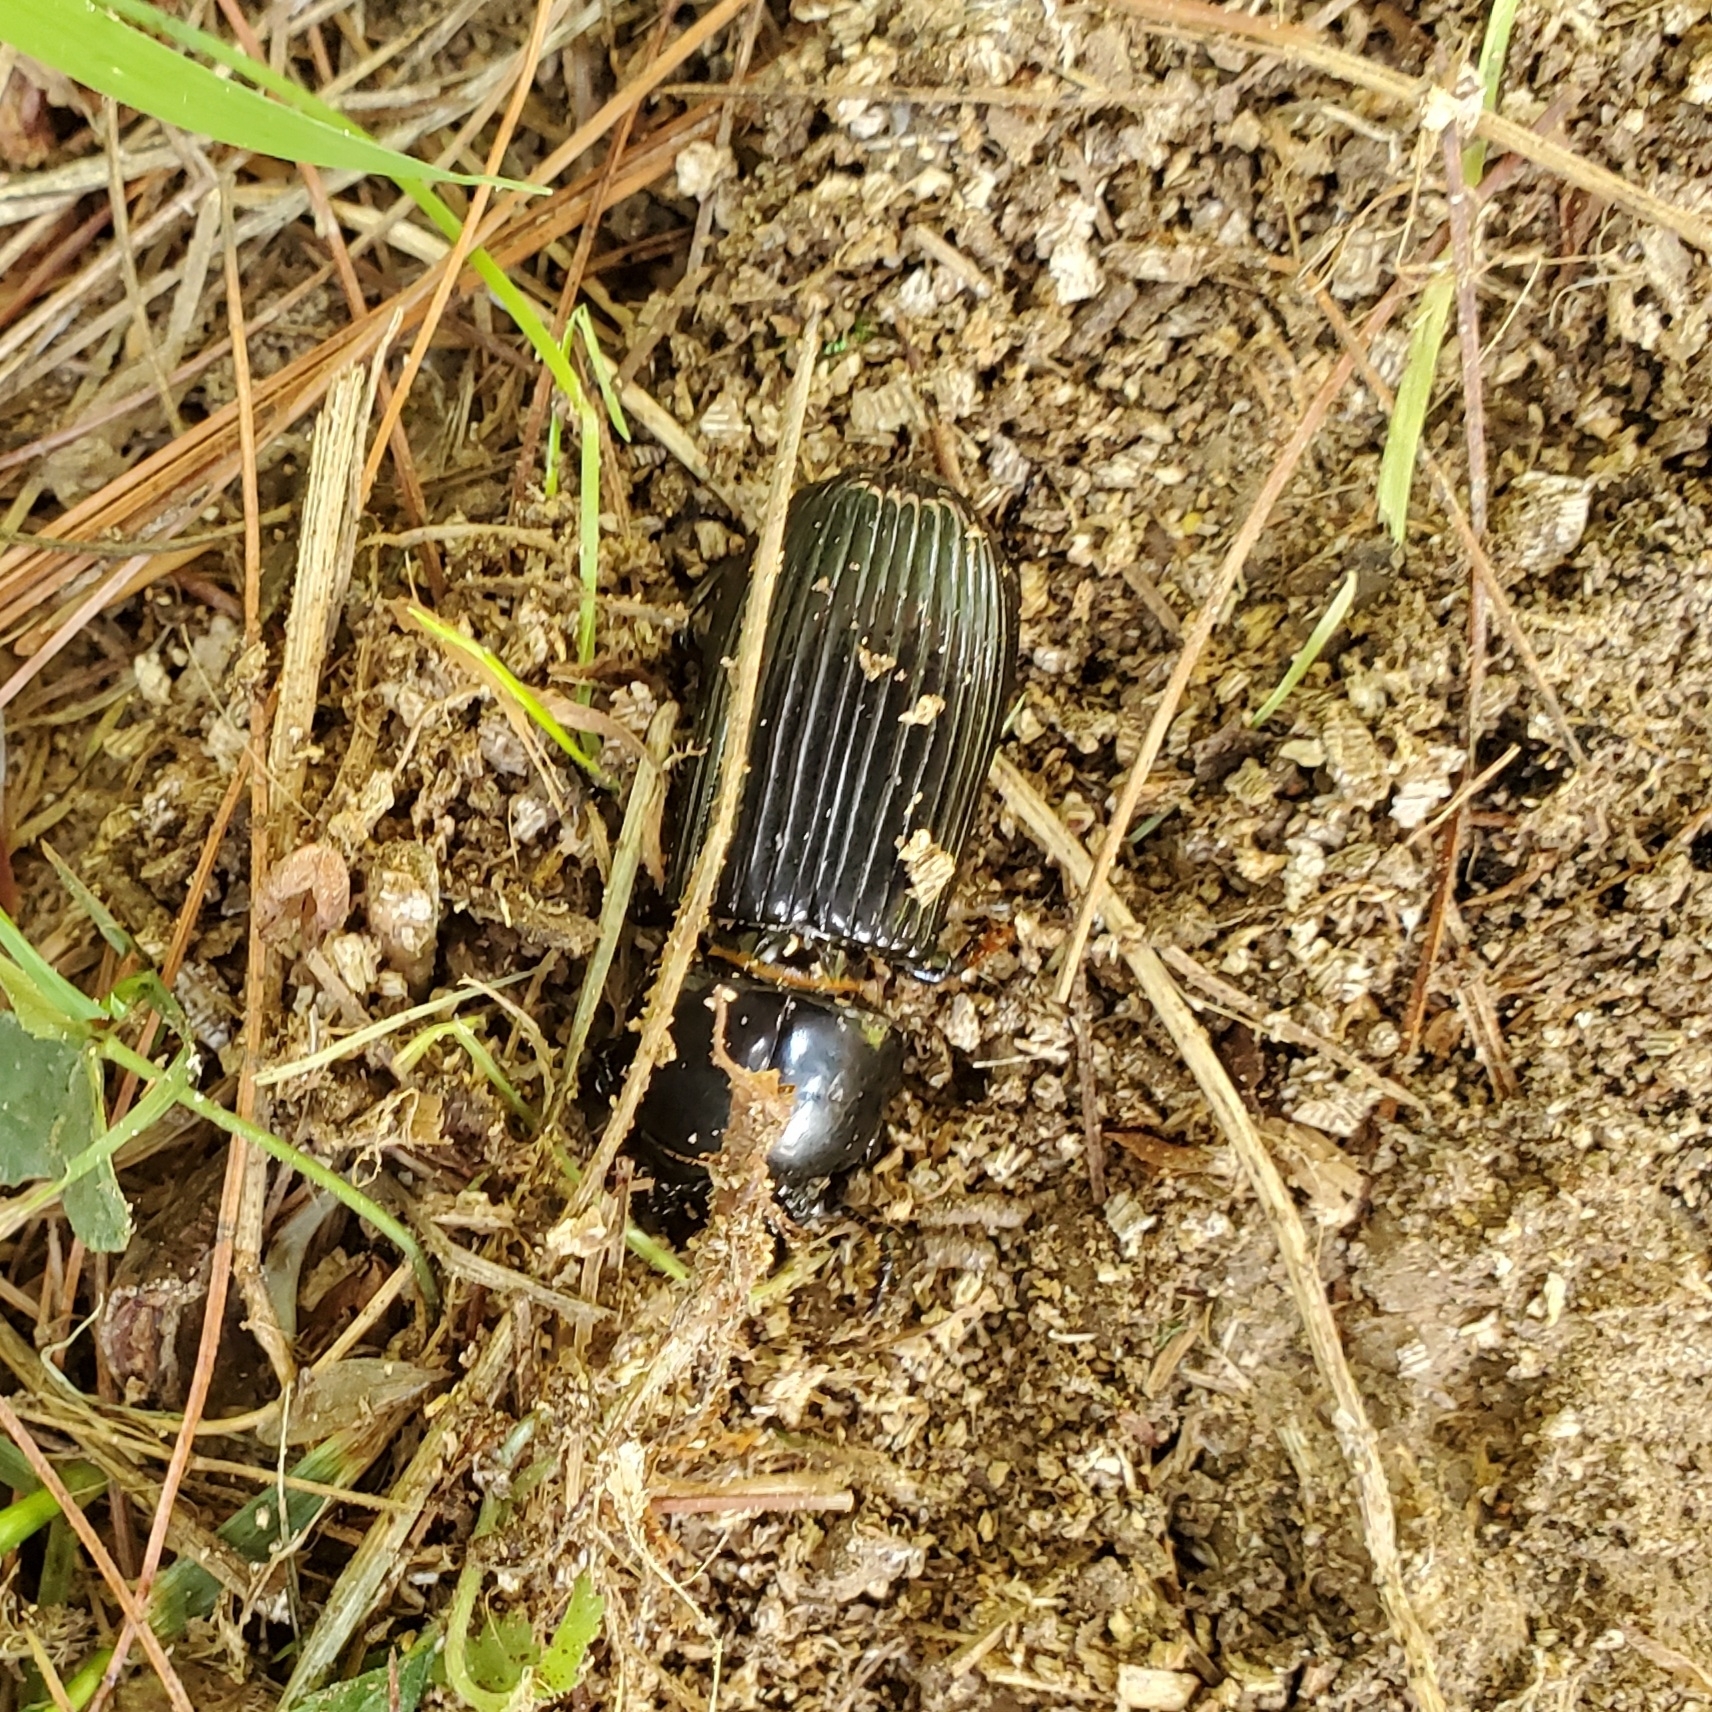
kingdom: Animalia
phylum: Arthropoda
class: Insecta
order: Coleoptera
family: Passalidae
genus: Odontotaenius
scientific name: Odontotaenius disjunctus
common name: Patent leather beetle
